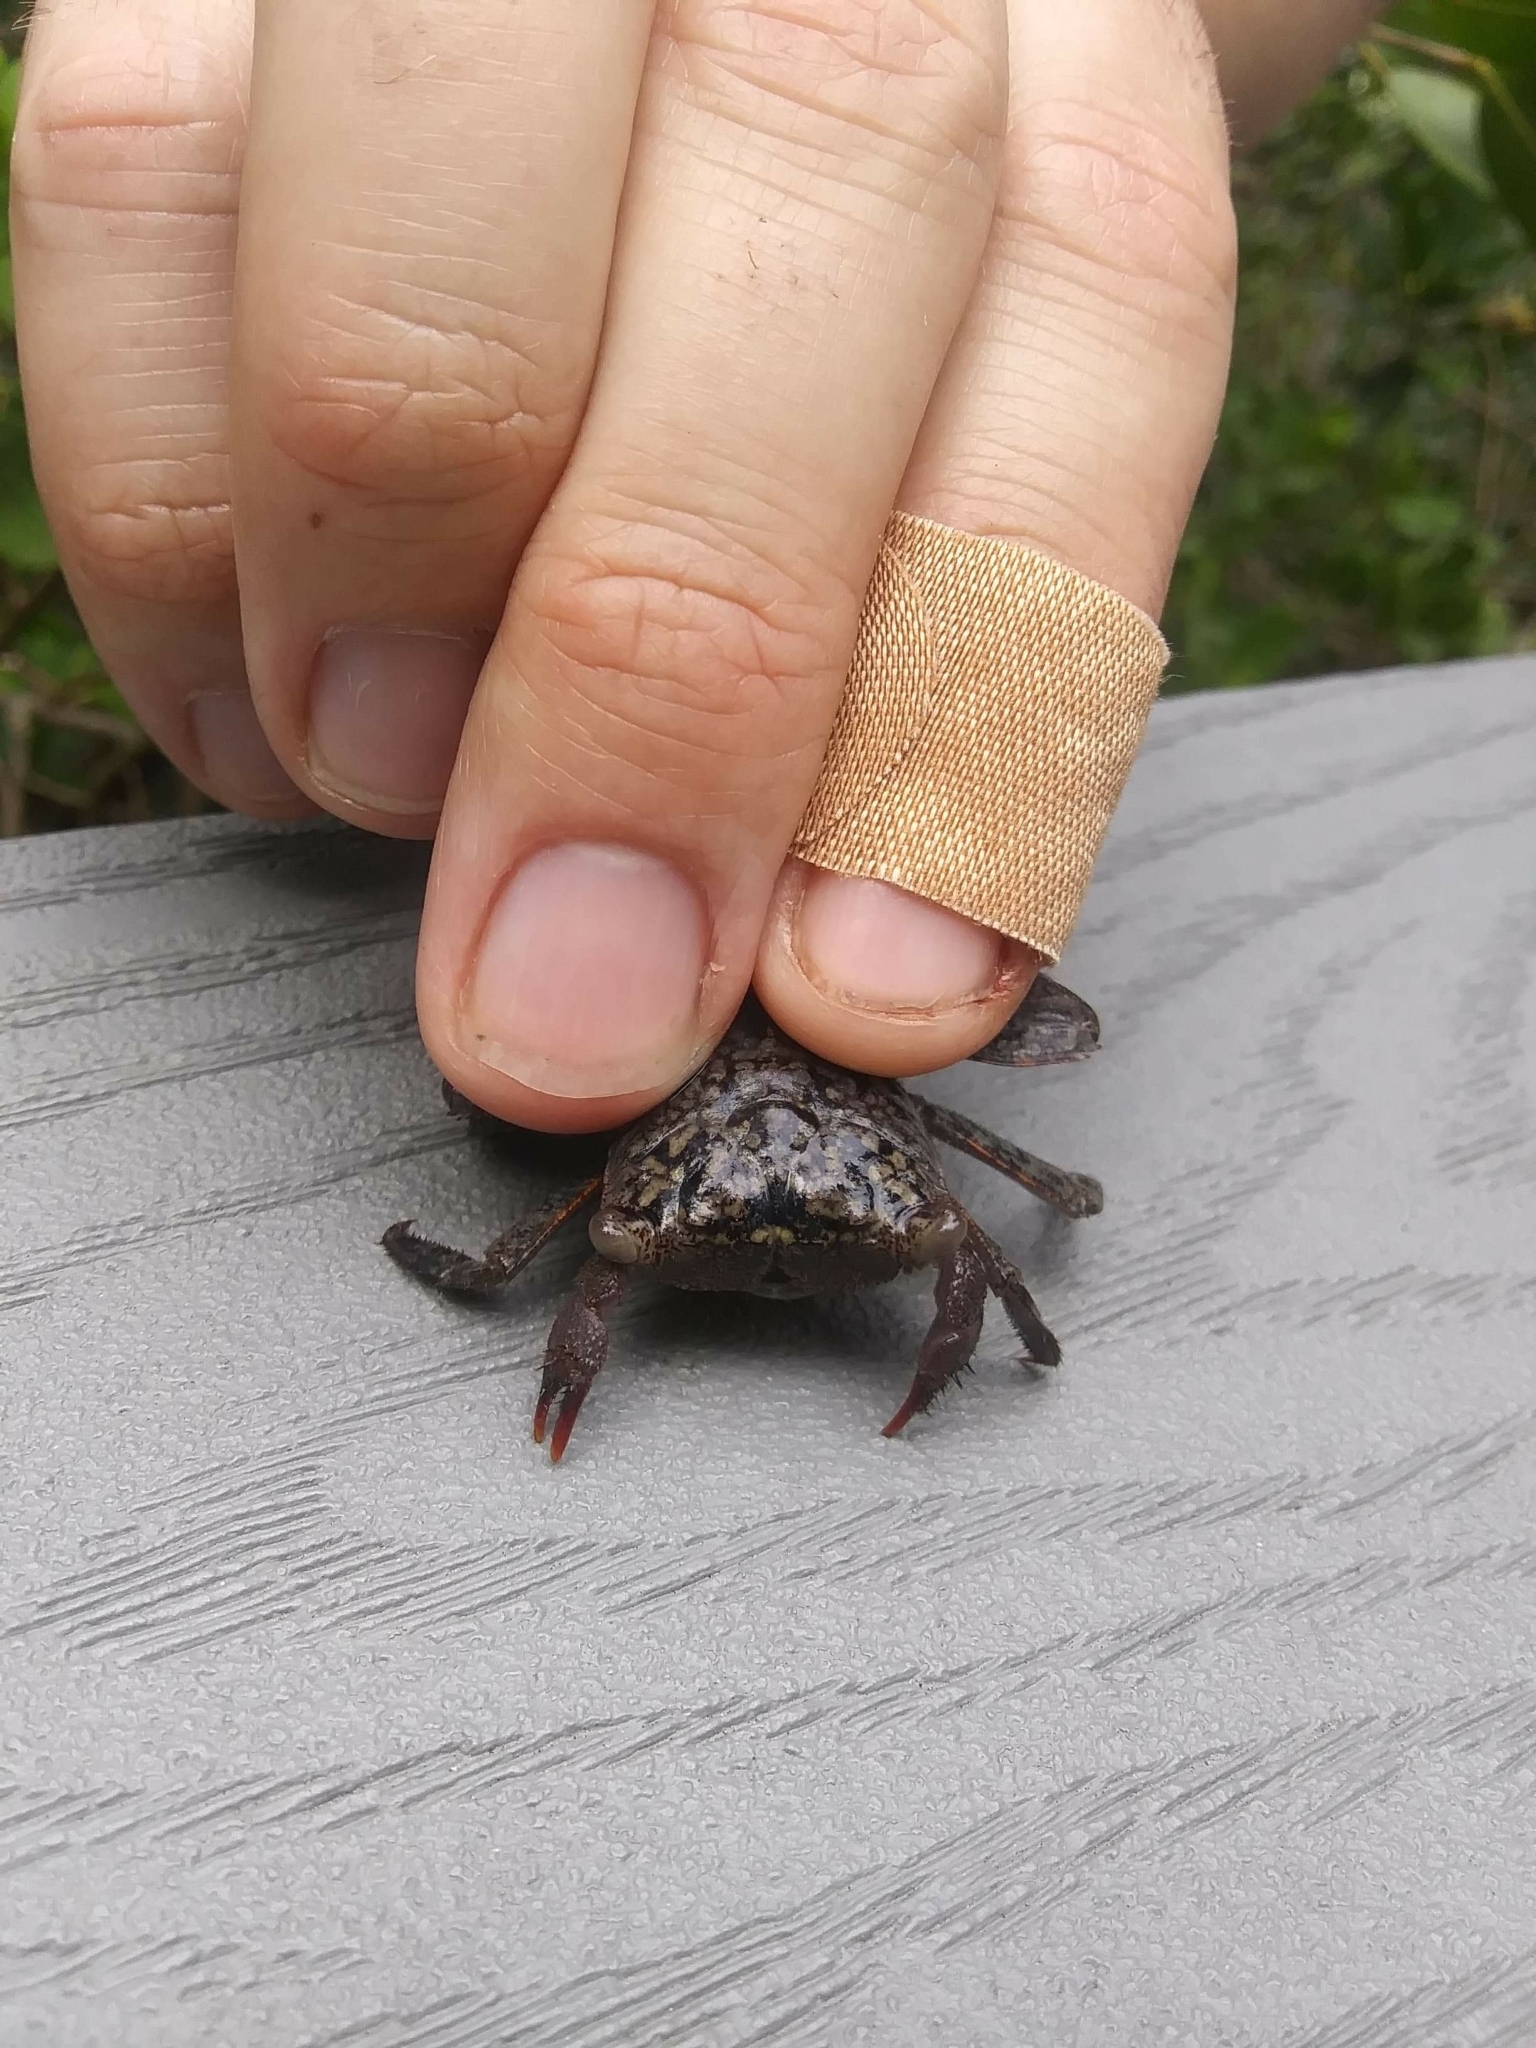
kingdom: Animalia
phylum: Arthropoda
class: Malacostraca
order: Decapoda
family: Sesarmidae
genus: Aratus
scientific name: Aratus pisonii
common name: Mangrove crab
